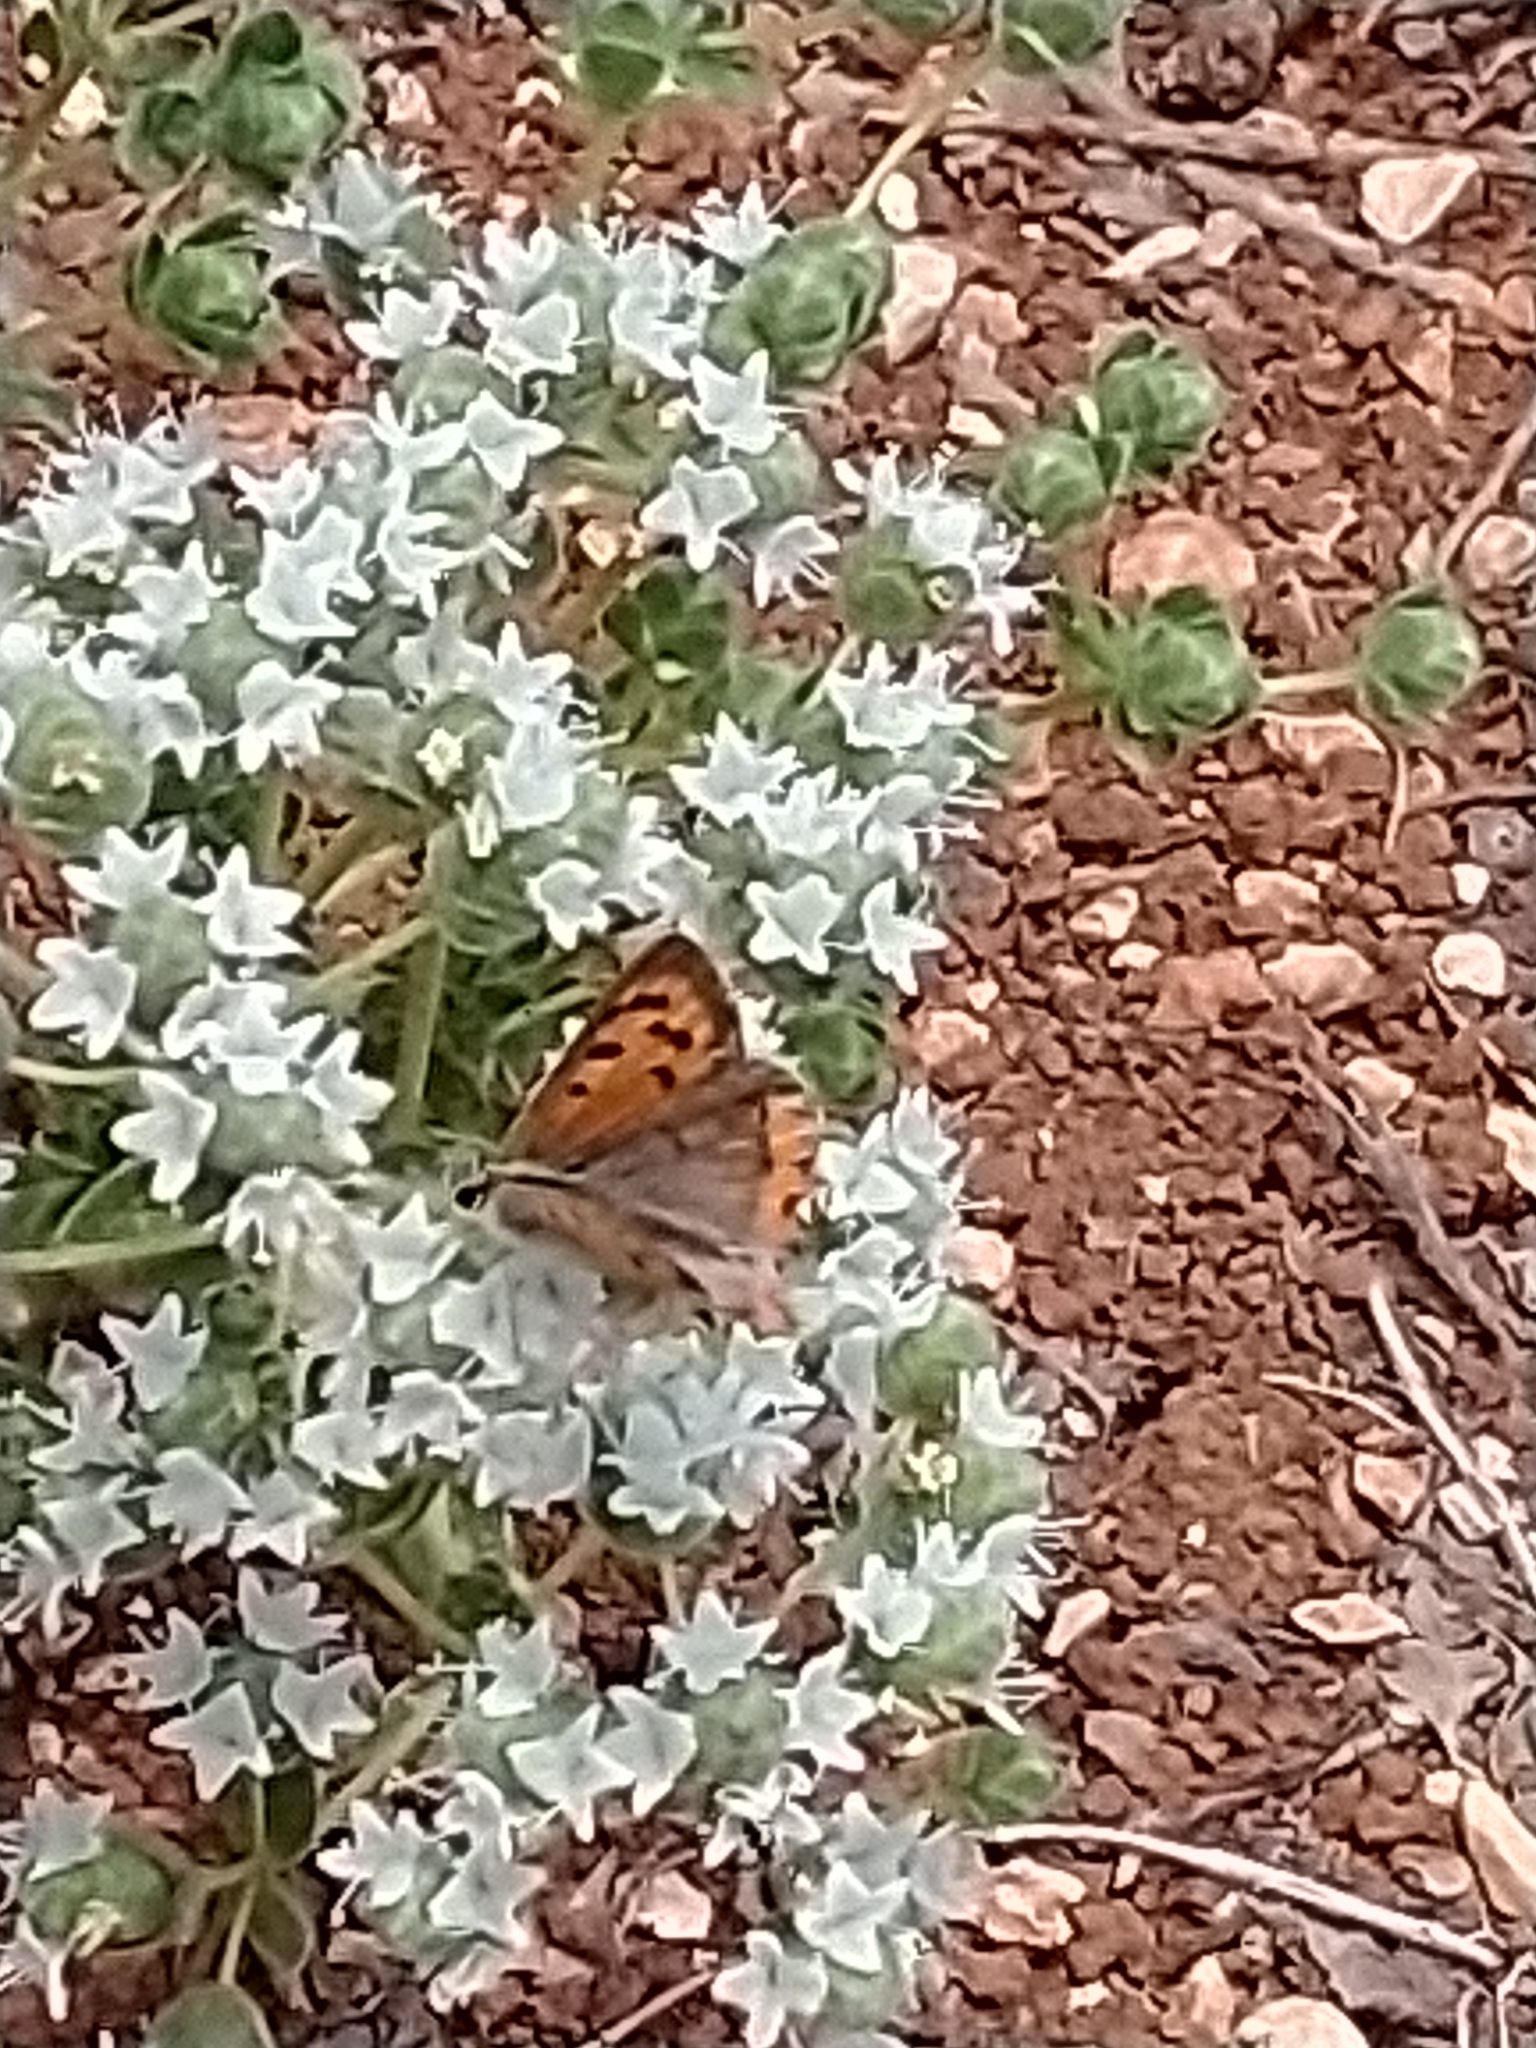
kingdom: Animalia
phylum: Arthropoda
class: Insecta
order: Lepidoptera
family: Lycaenidae
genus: Lycaena
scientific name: Lycaena phlaeas
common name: Small copper
